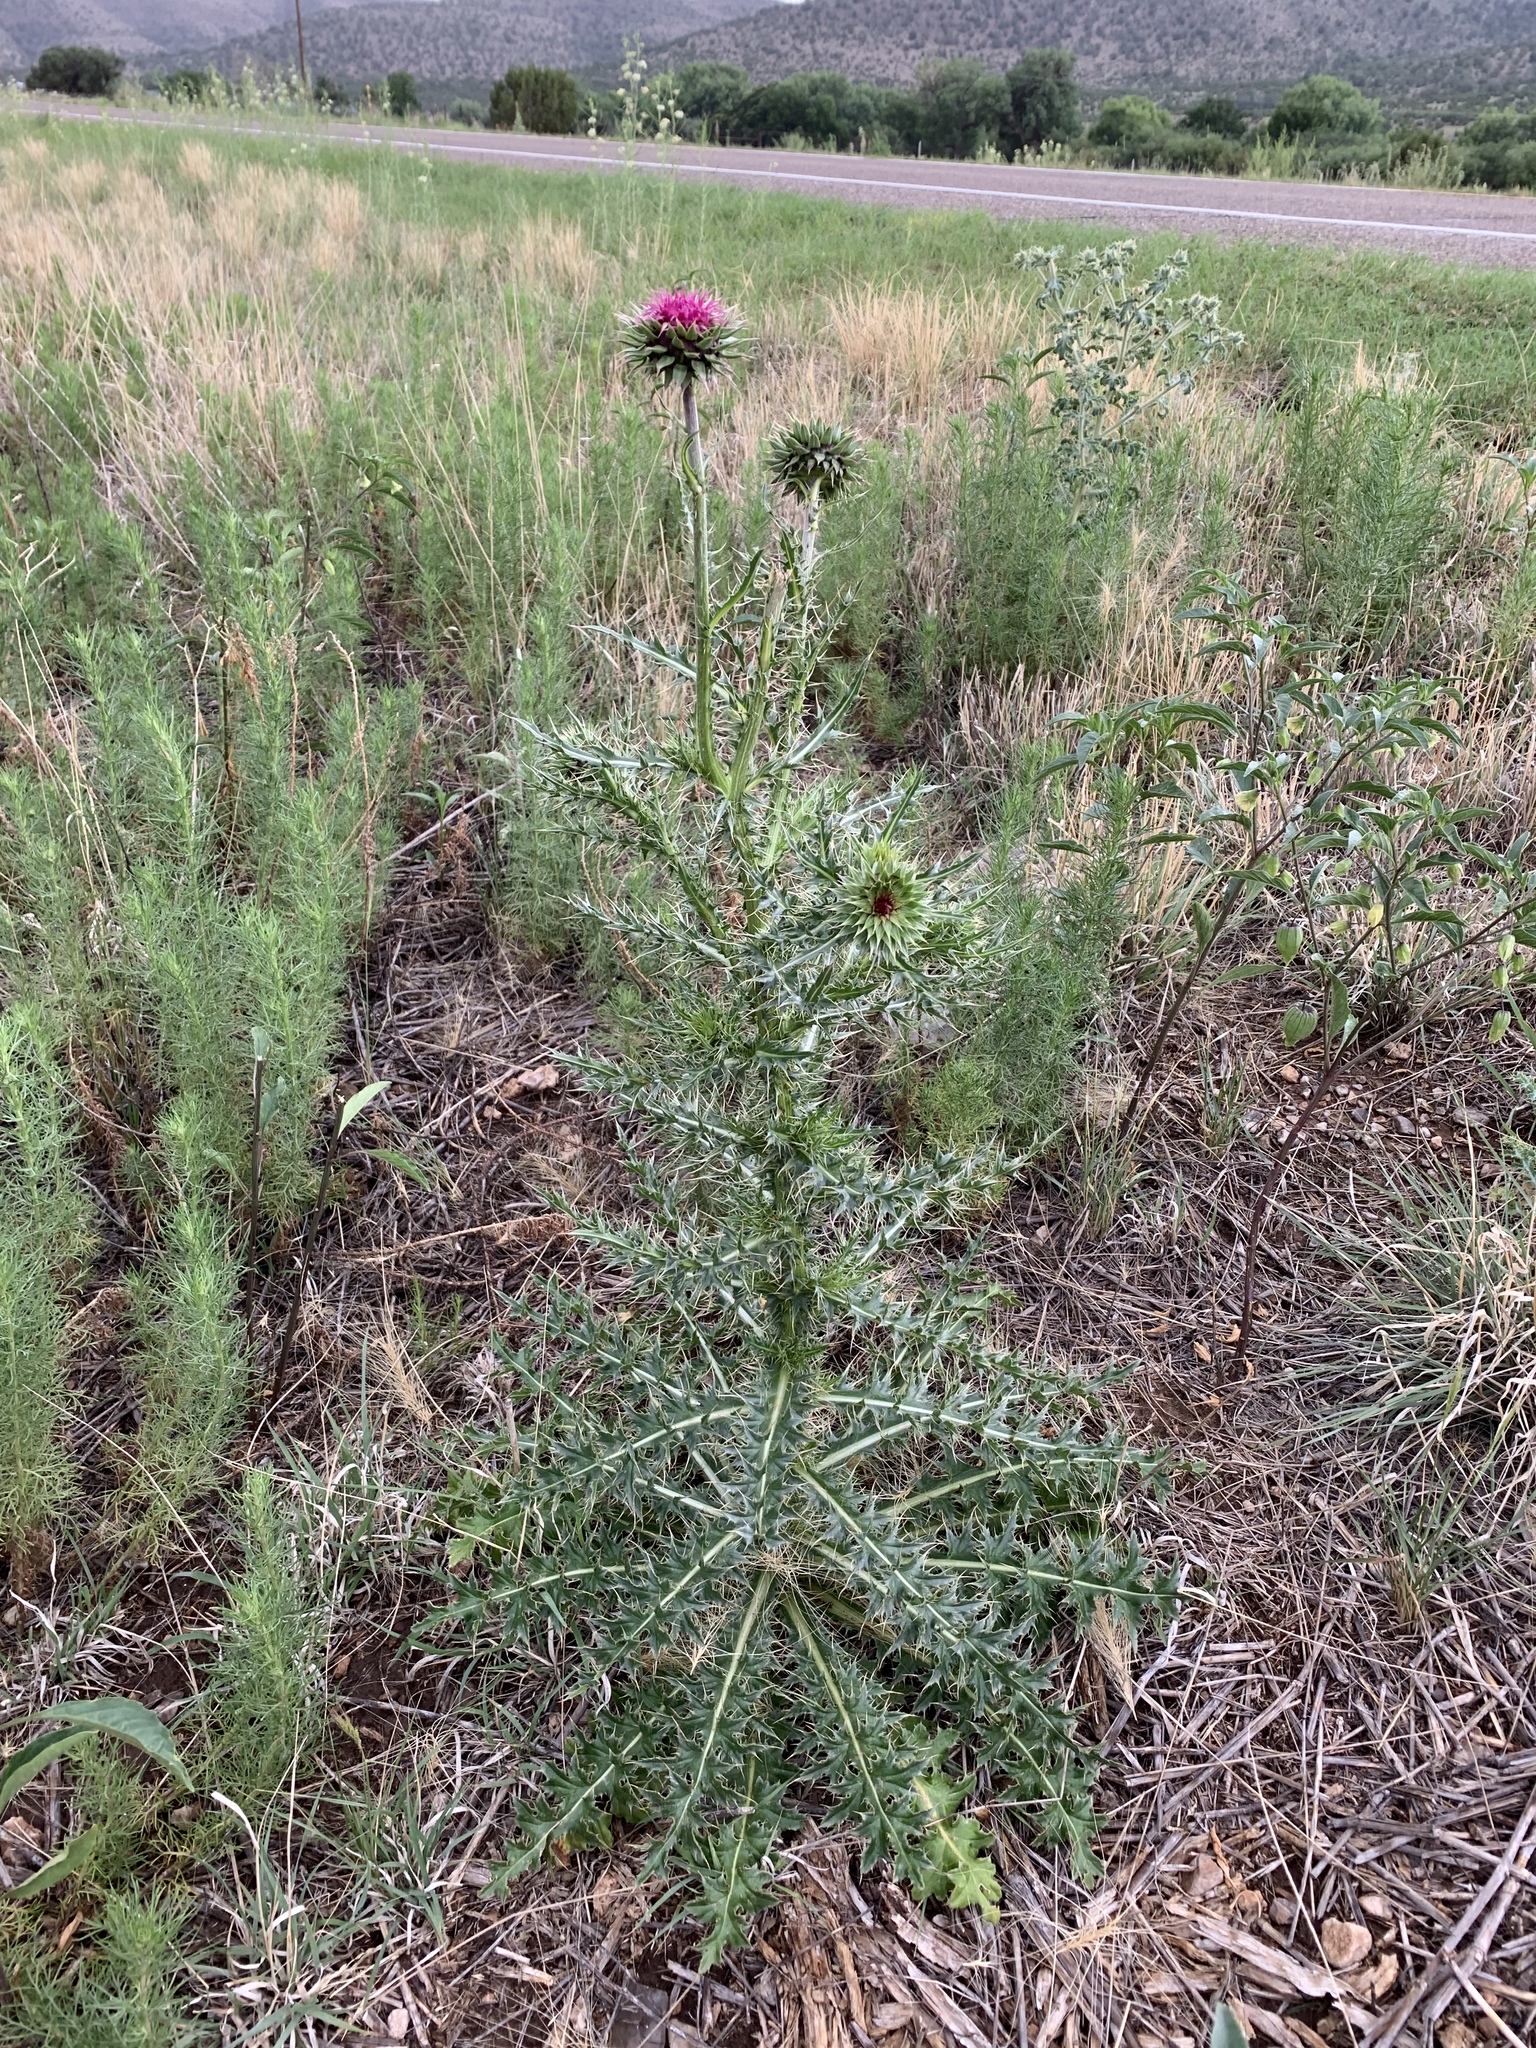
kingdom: Plantae
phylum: Tracheophyta
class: Magnoliopsida
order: Asterales
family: Asteraceae
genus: Carduus
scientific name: Carduus nutans
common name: Musk thistle
